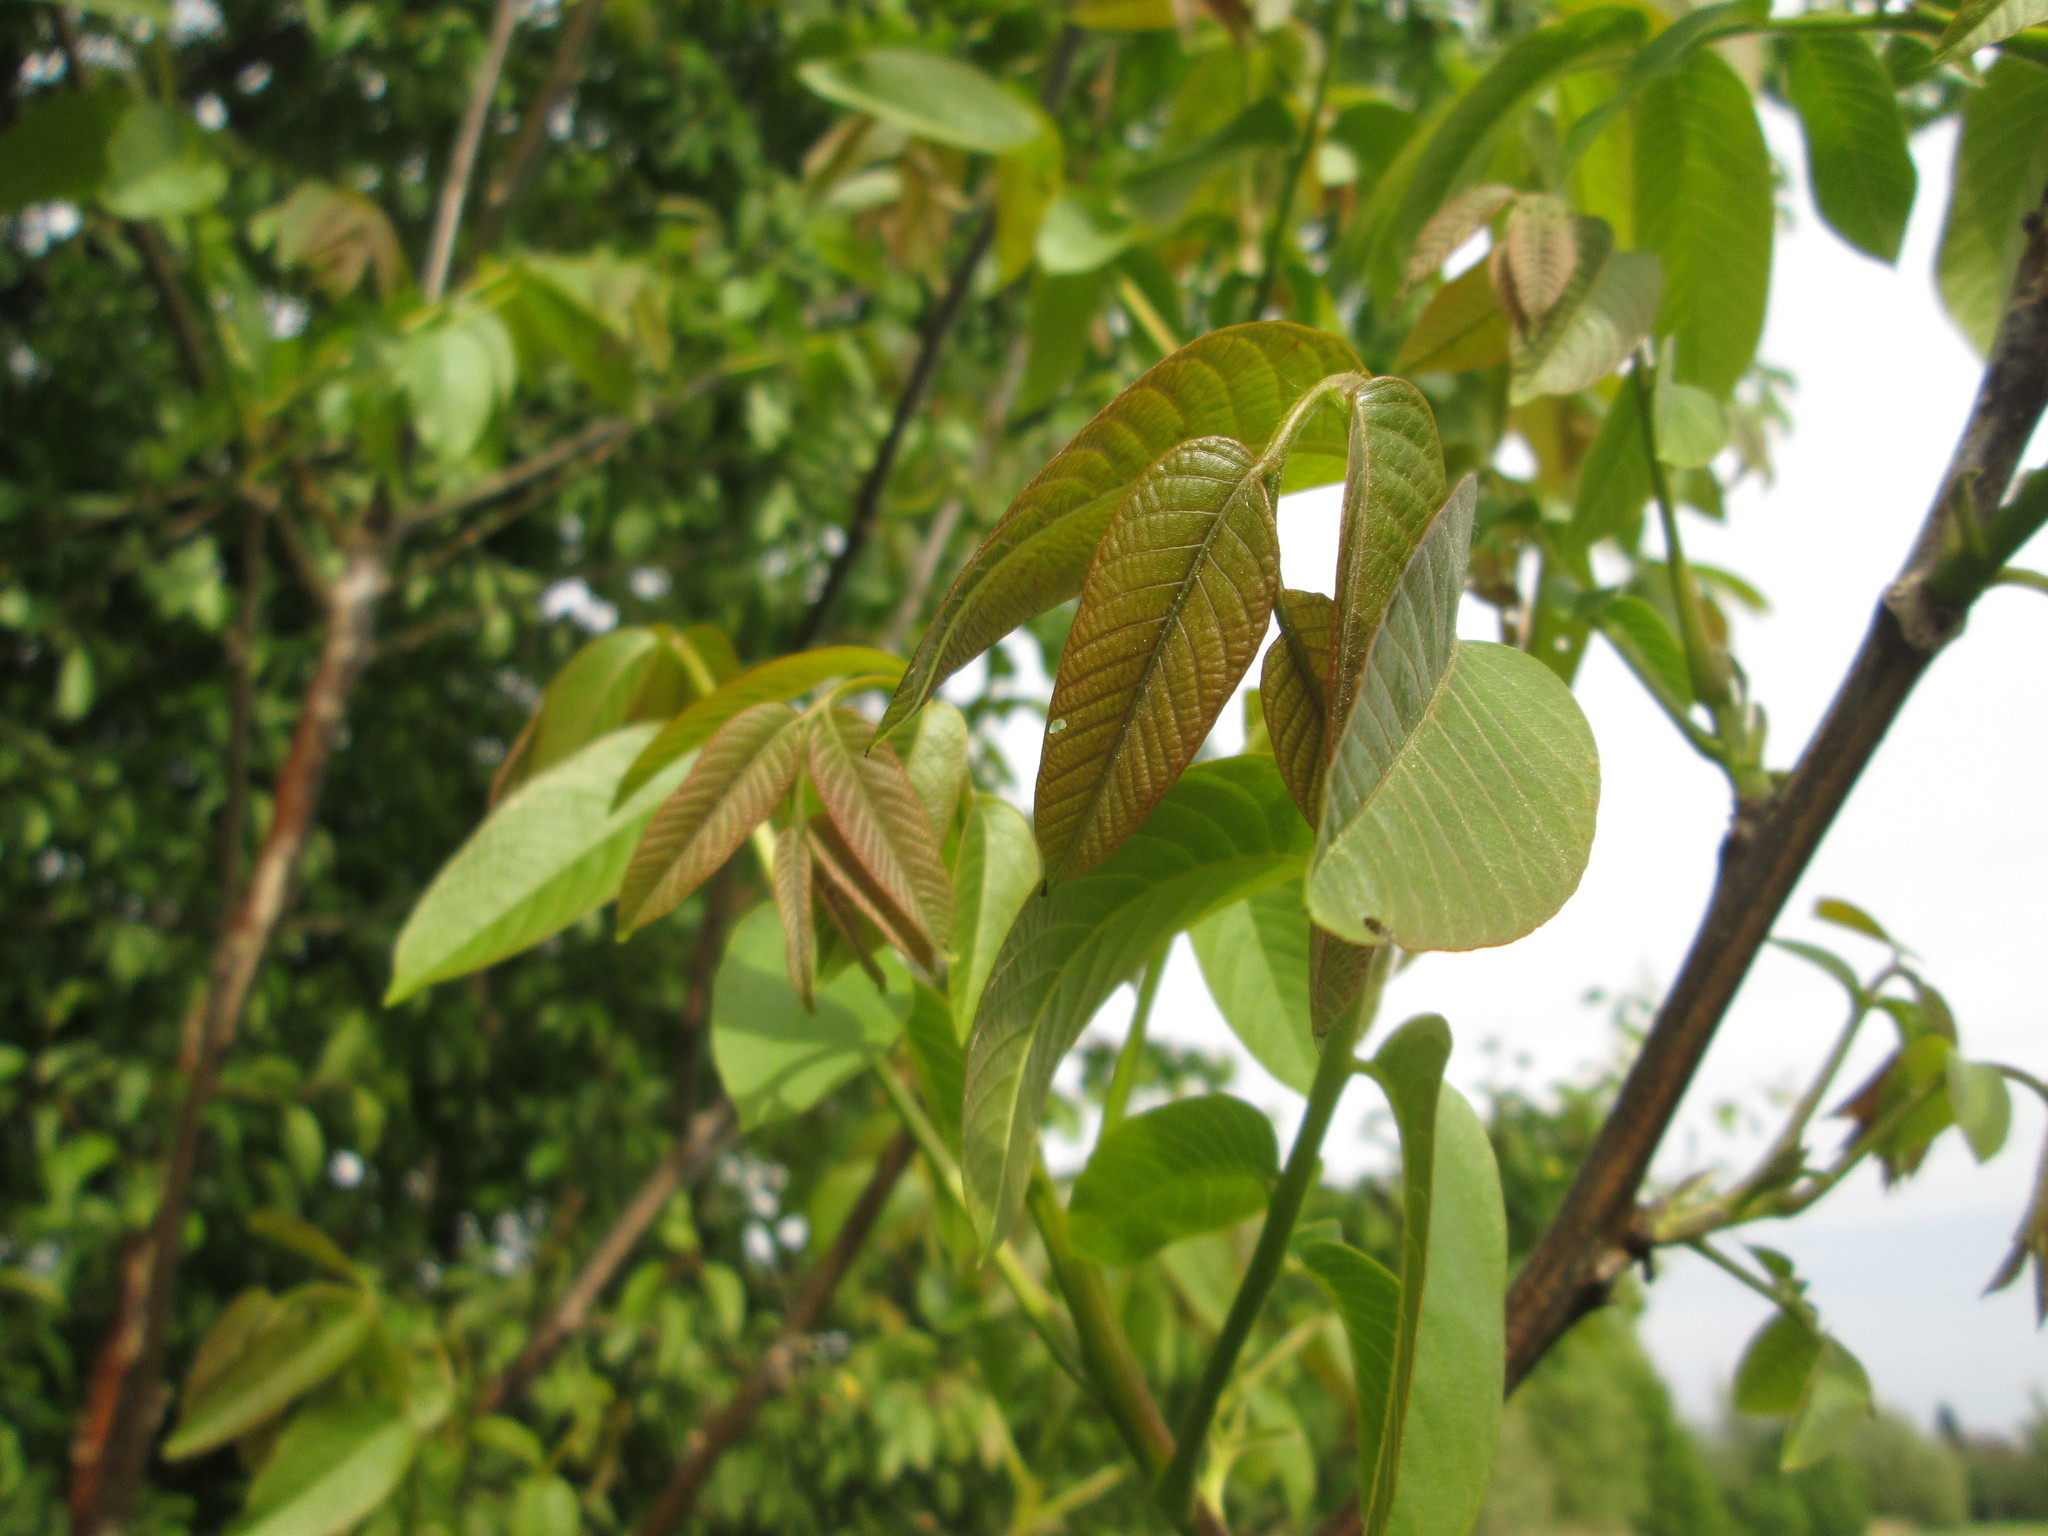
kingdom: Plantae
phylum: Tracheophyta
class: Magnoliopsida
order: Fagales
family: Juglandaceae
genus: Juglans
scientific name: Juglans regia
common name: Walnut
